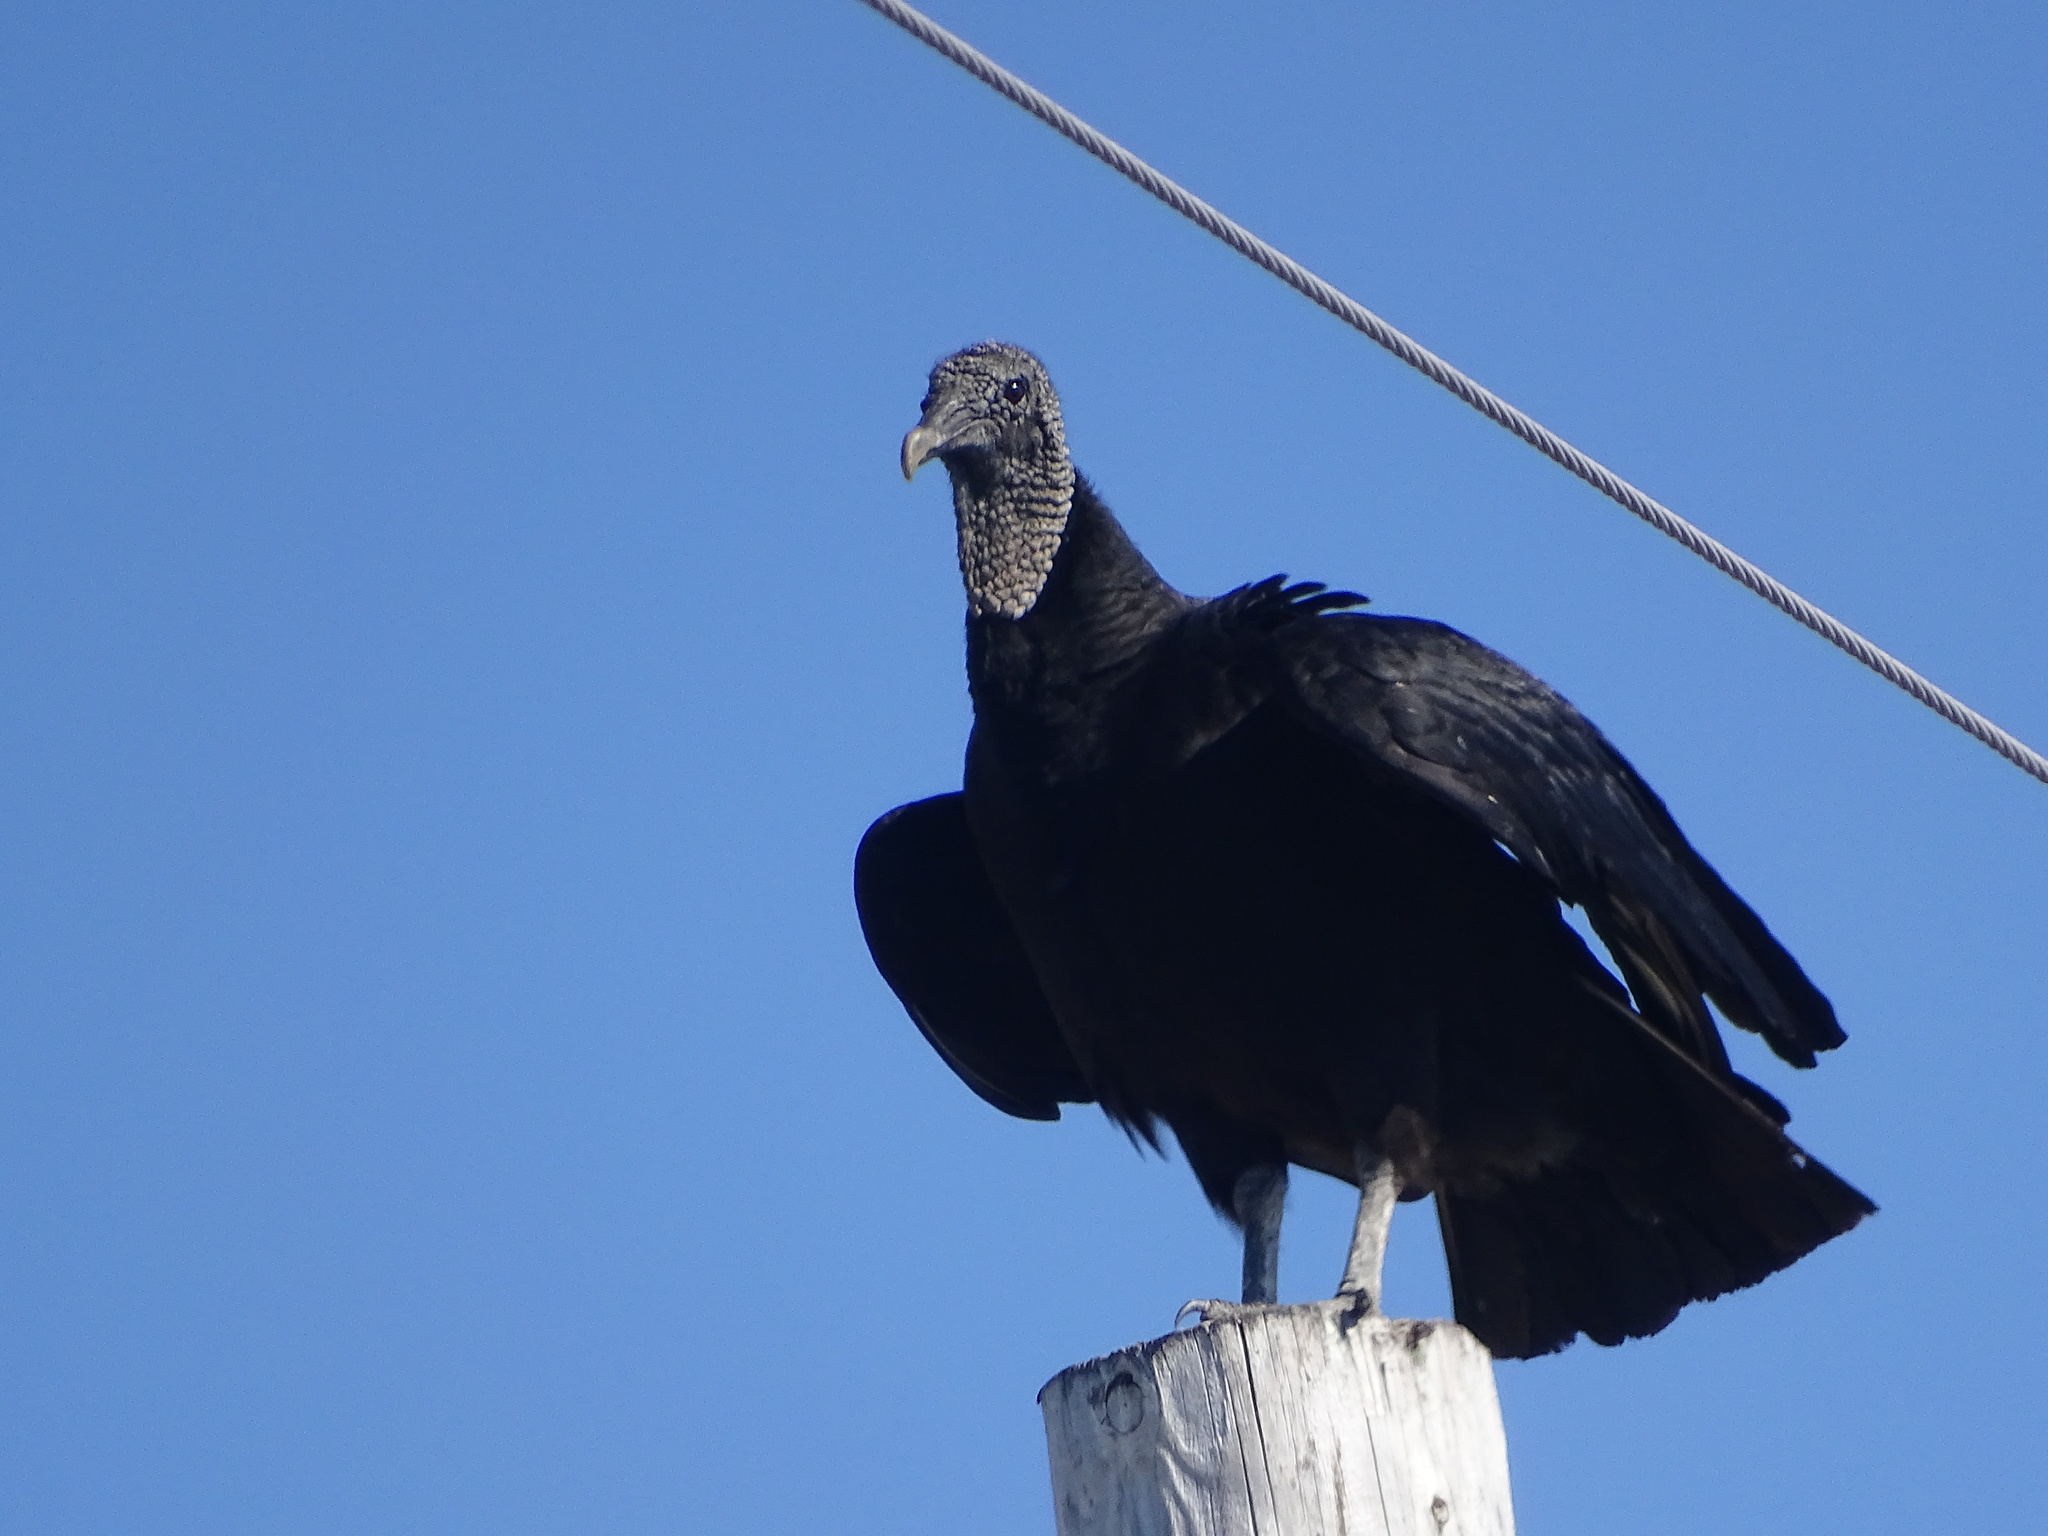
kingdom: Animalia
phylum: Chordata
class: Aves
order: Accipitriformes
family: Cathartidae
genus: Coragyps
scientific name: Coragyps atratus
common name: Black vulture
